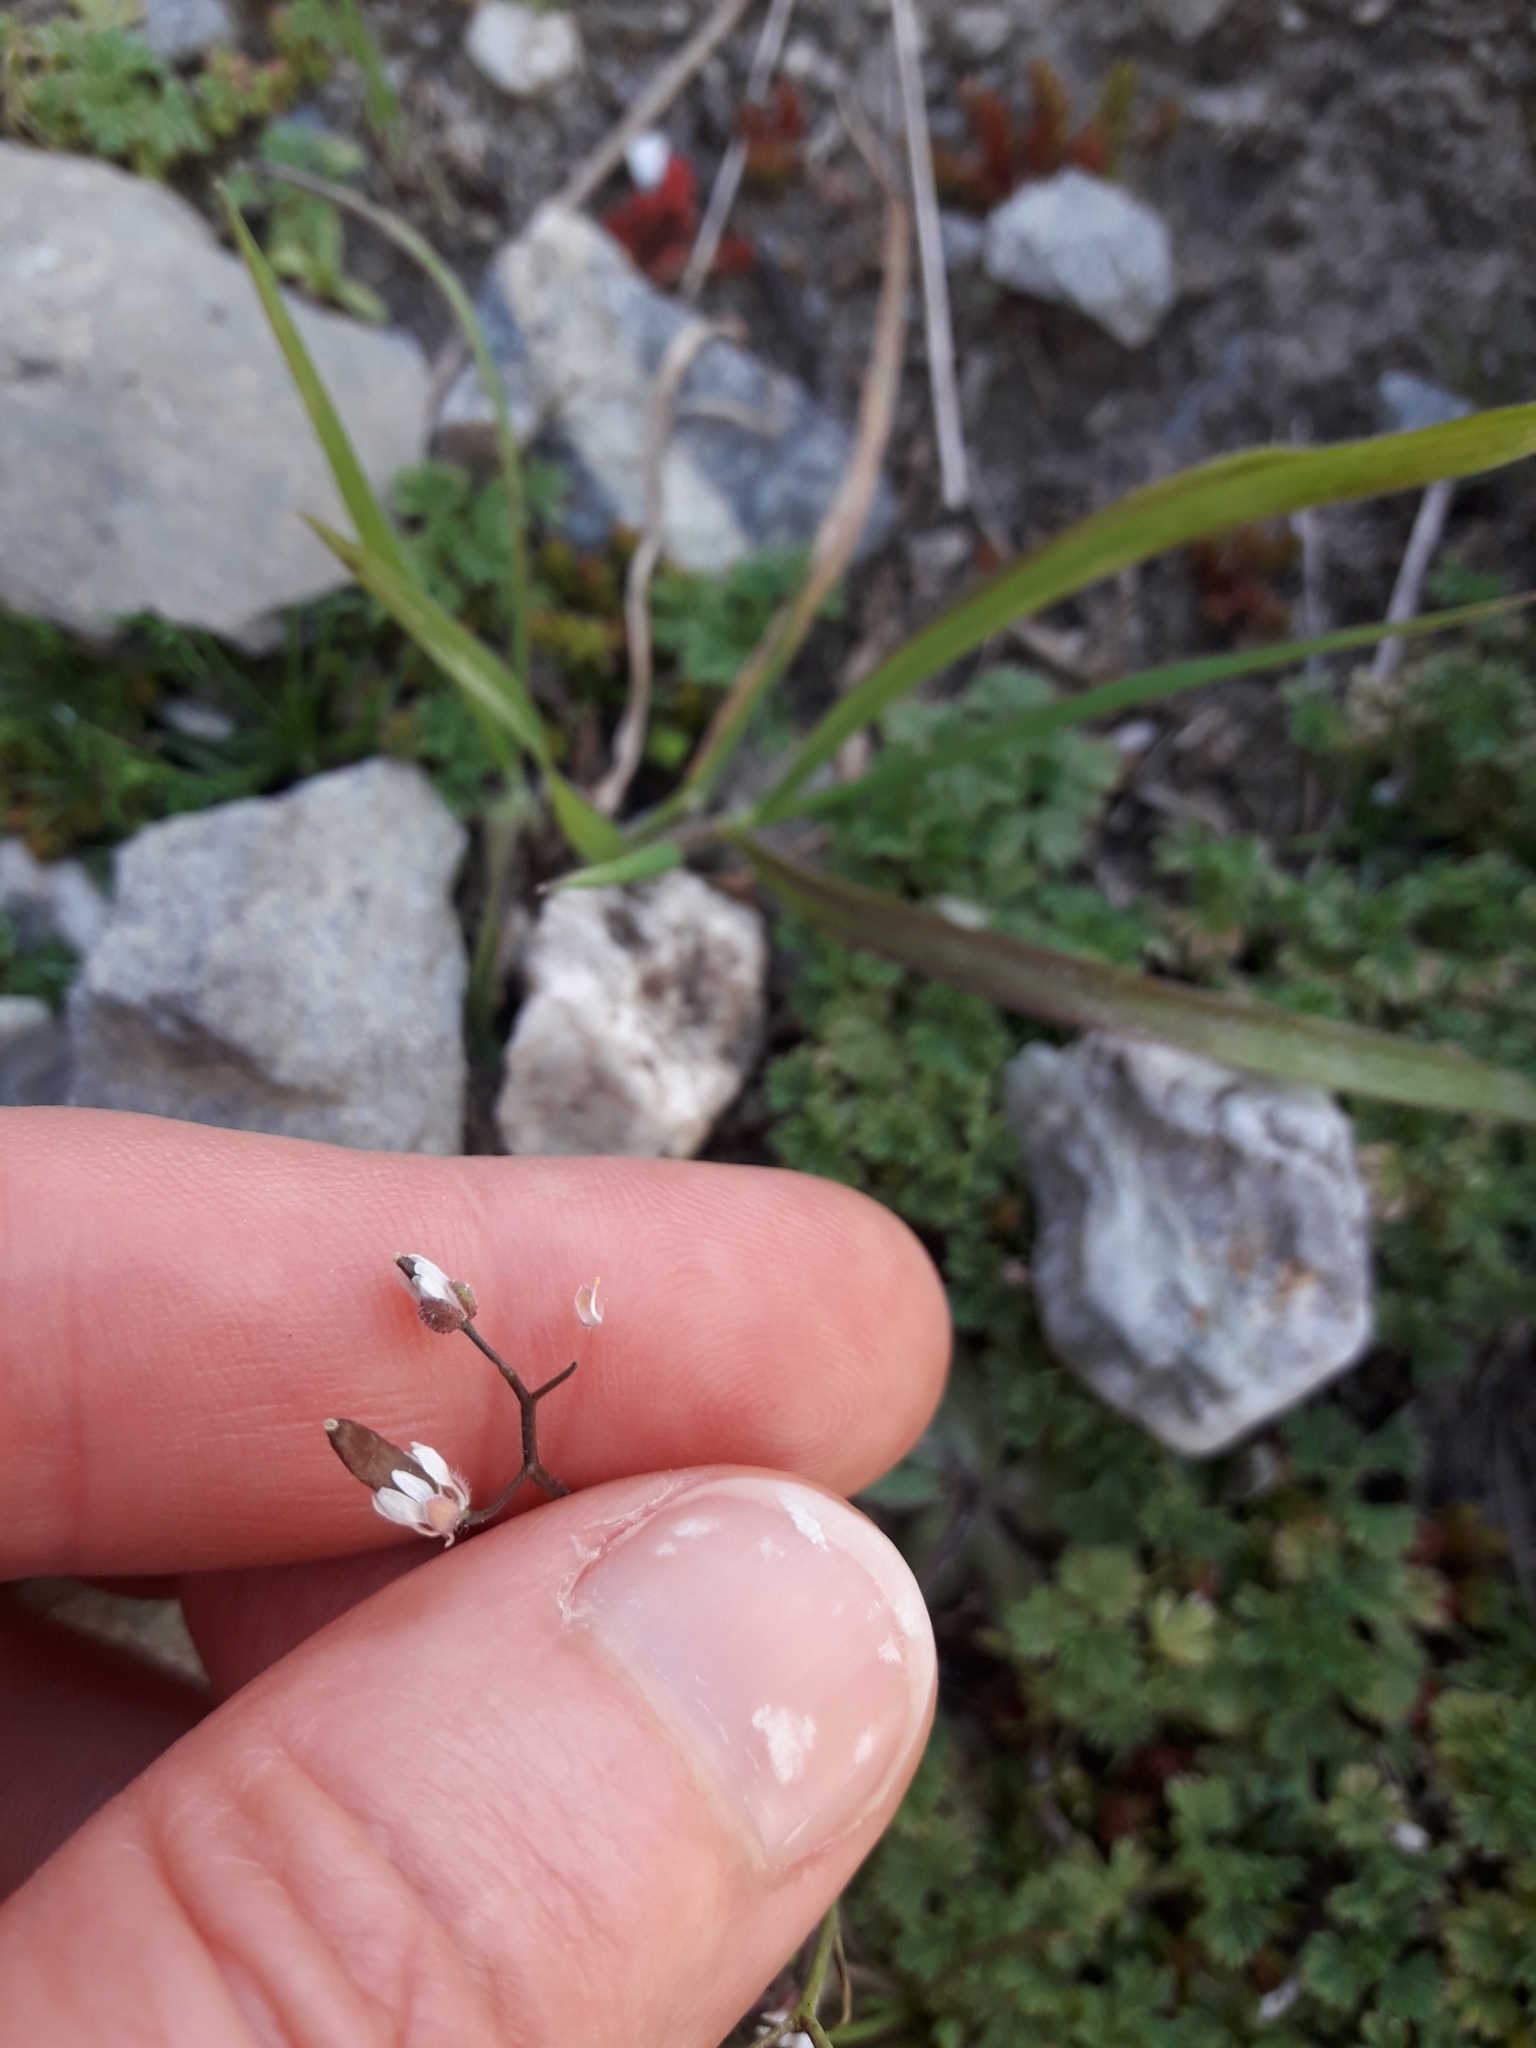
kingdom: Plantae
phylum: Tracheophyta
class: Magnoliopsida
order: Brassicales
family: Brassicaceae
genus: Draba
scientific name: Draba verna
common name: Spring draba
